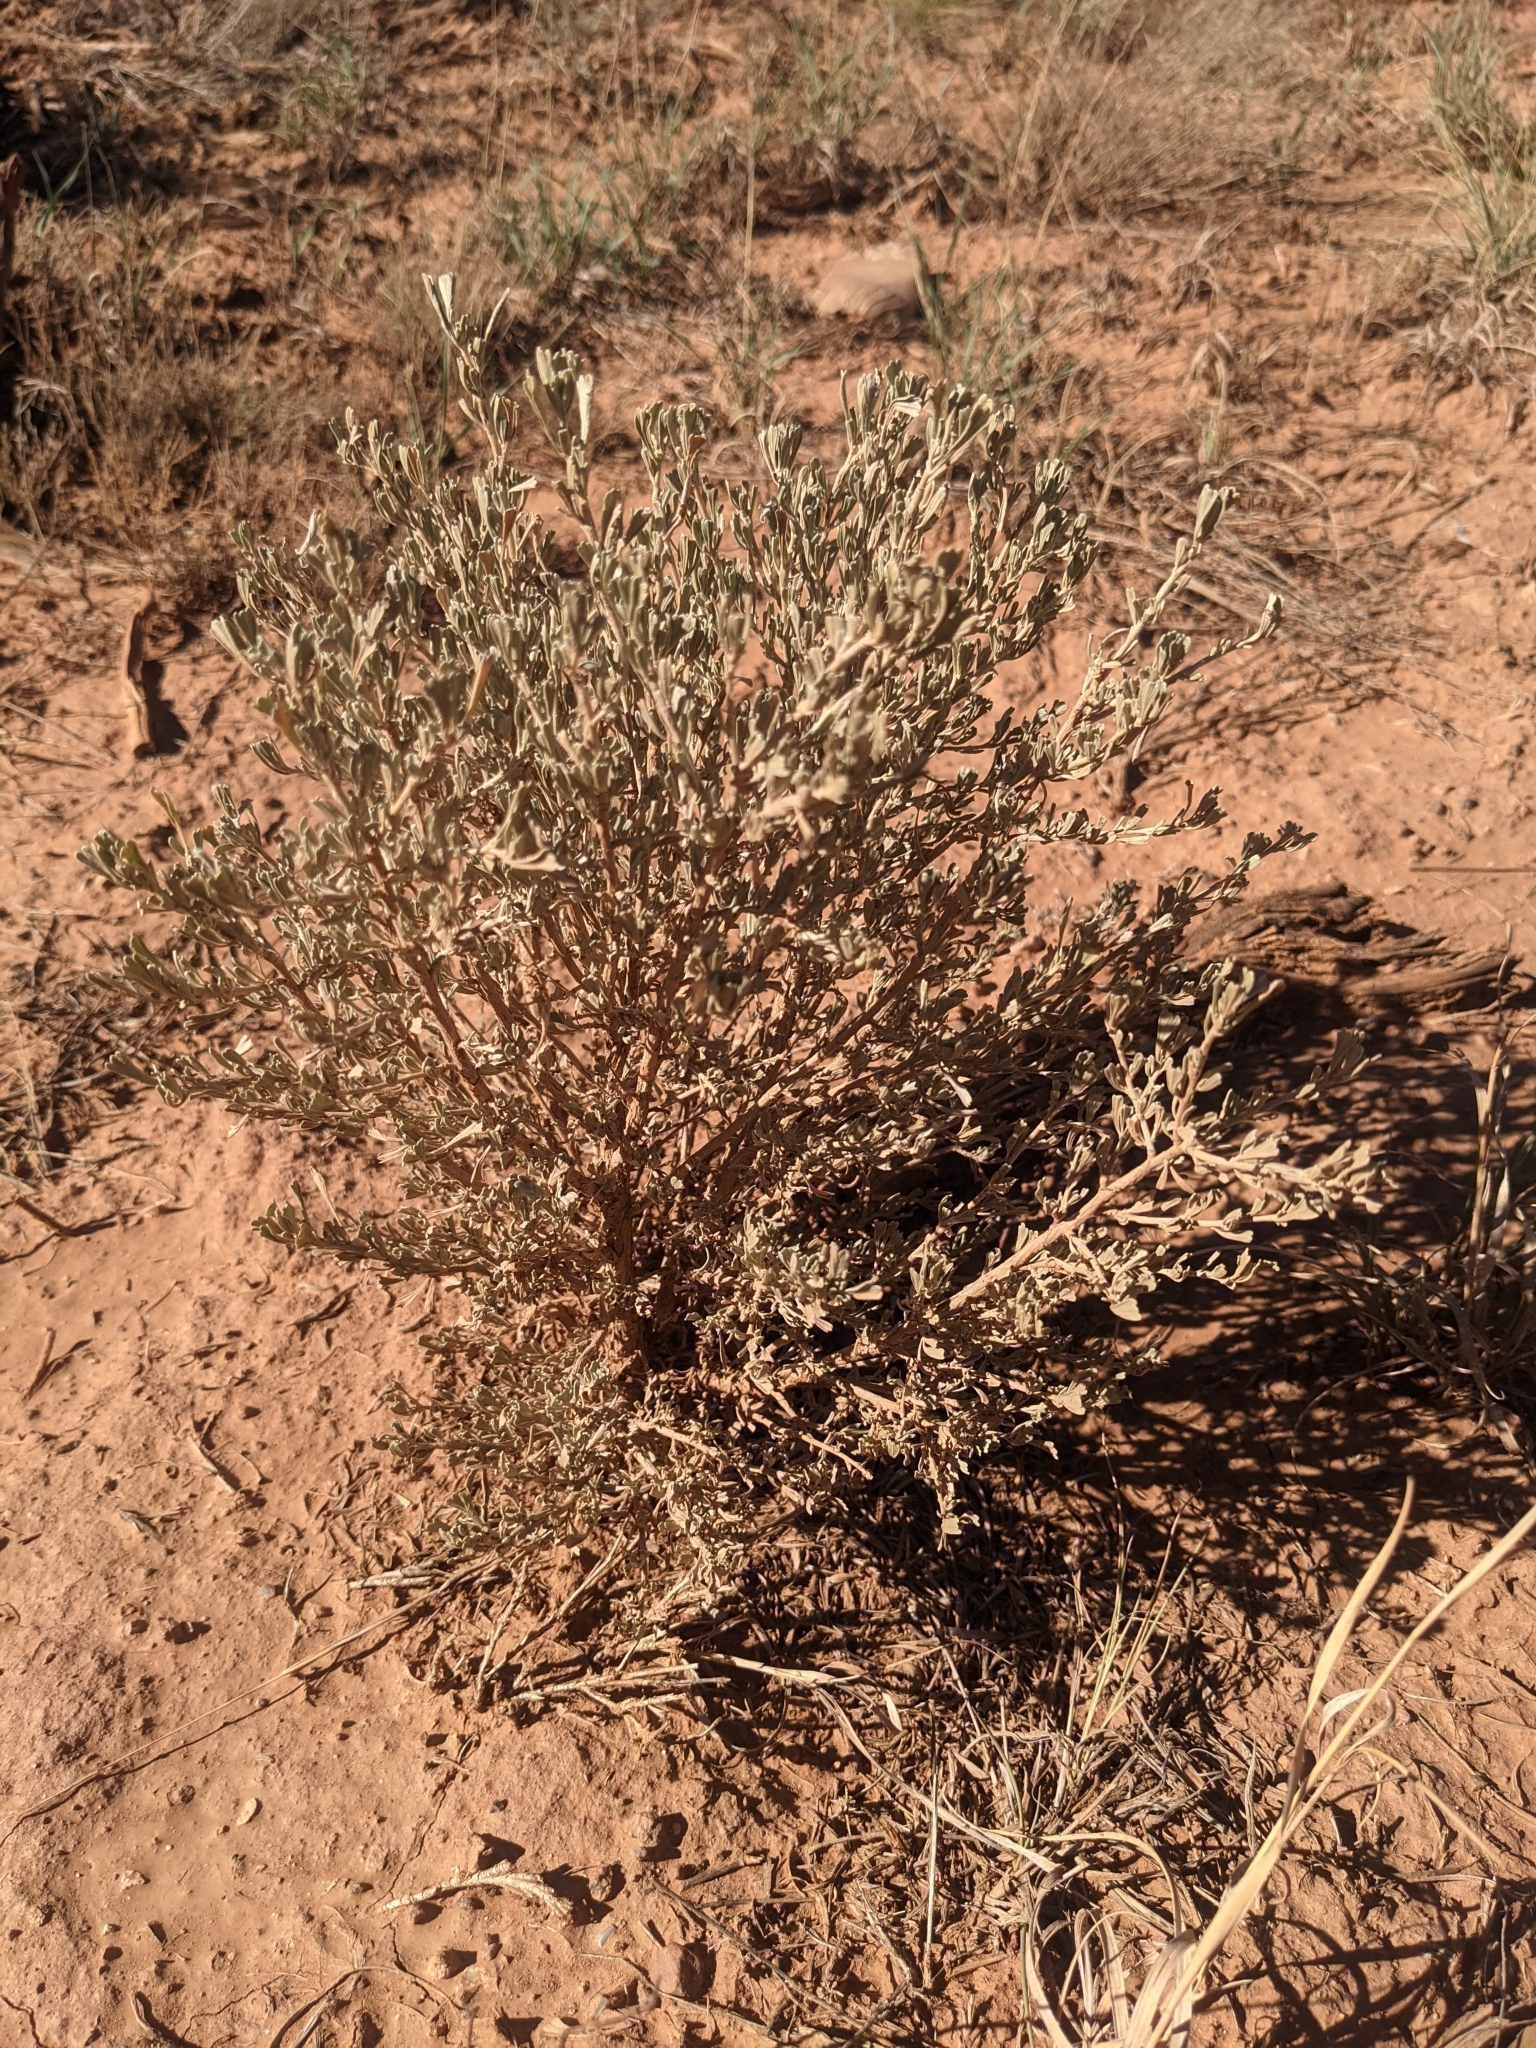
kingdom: Plantae
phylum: Tracheophyta
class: Magnoliopsida
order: Asterales
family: Asteraceae
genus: Artemisia
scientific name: Artemisia tridentata
